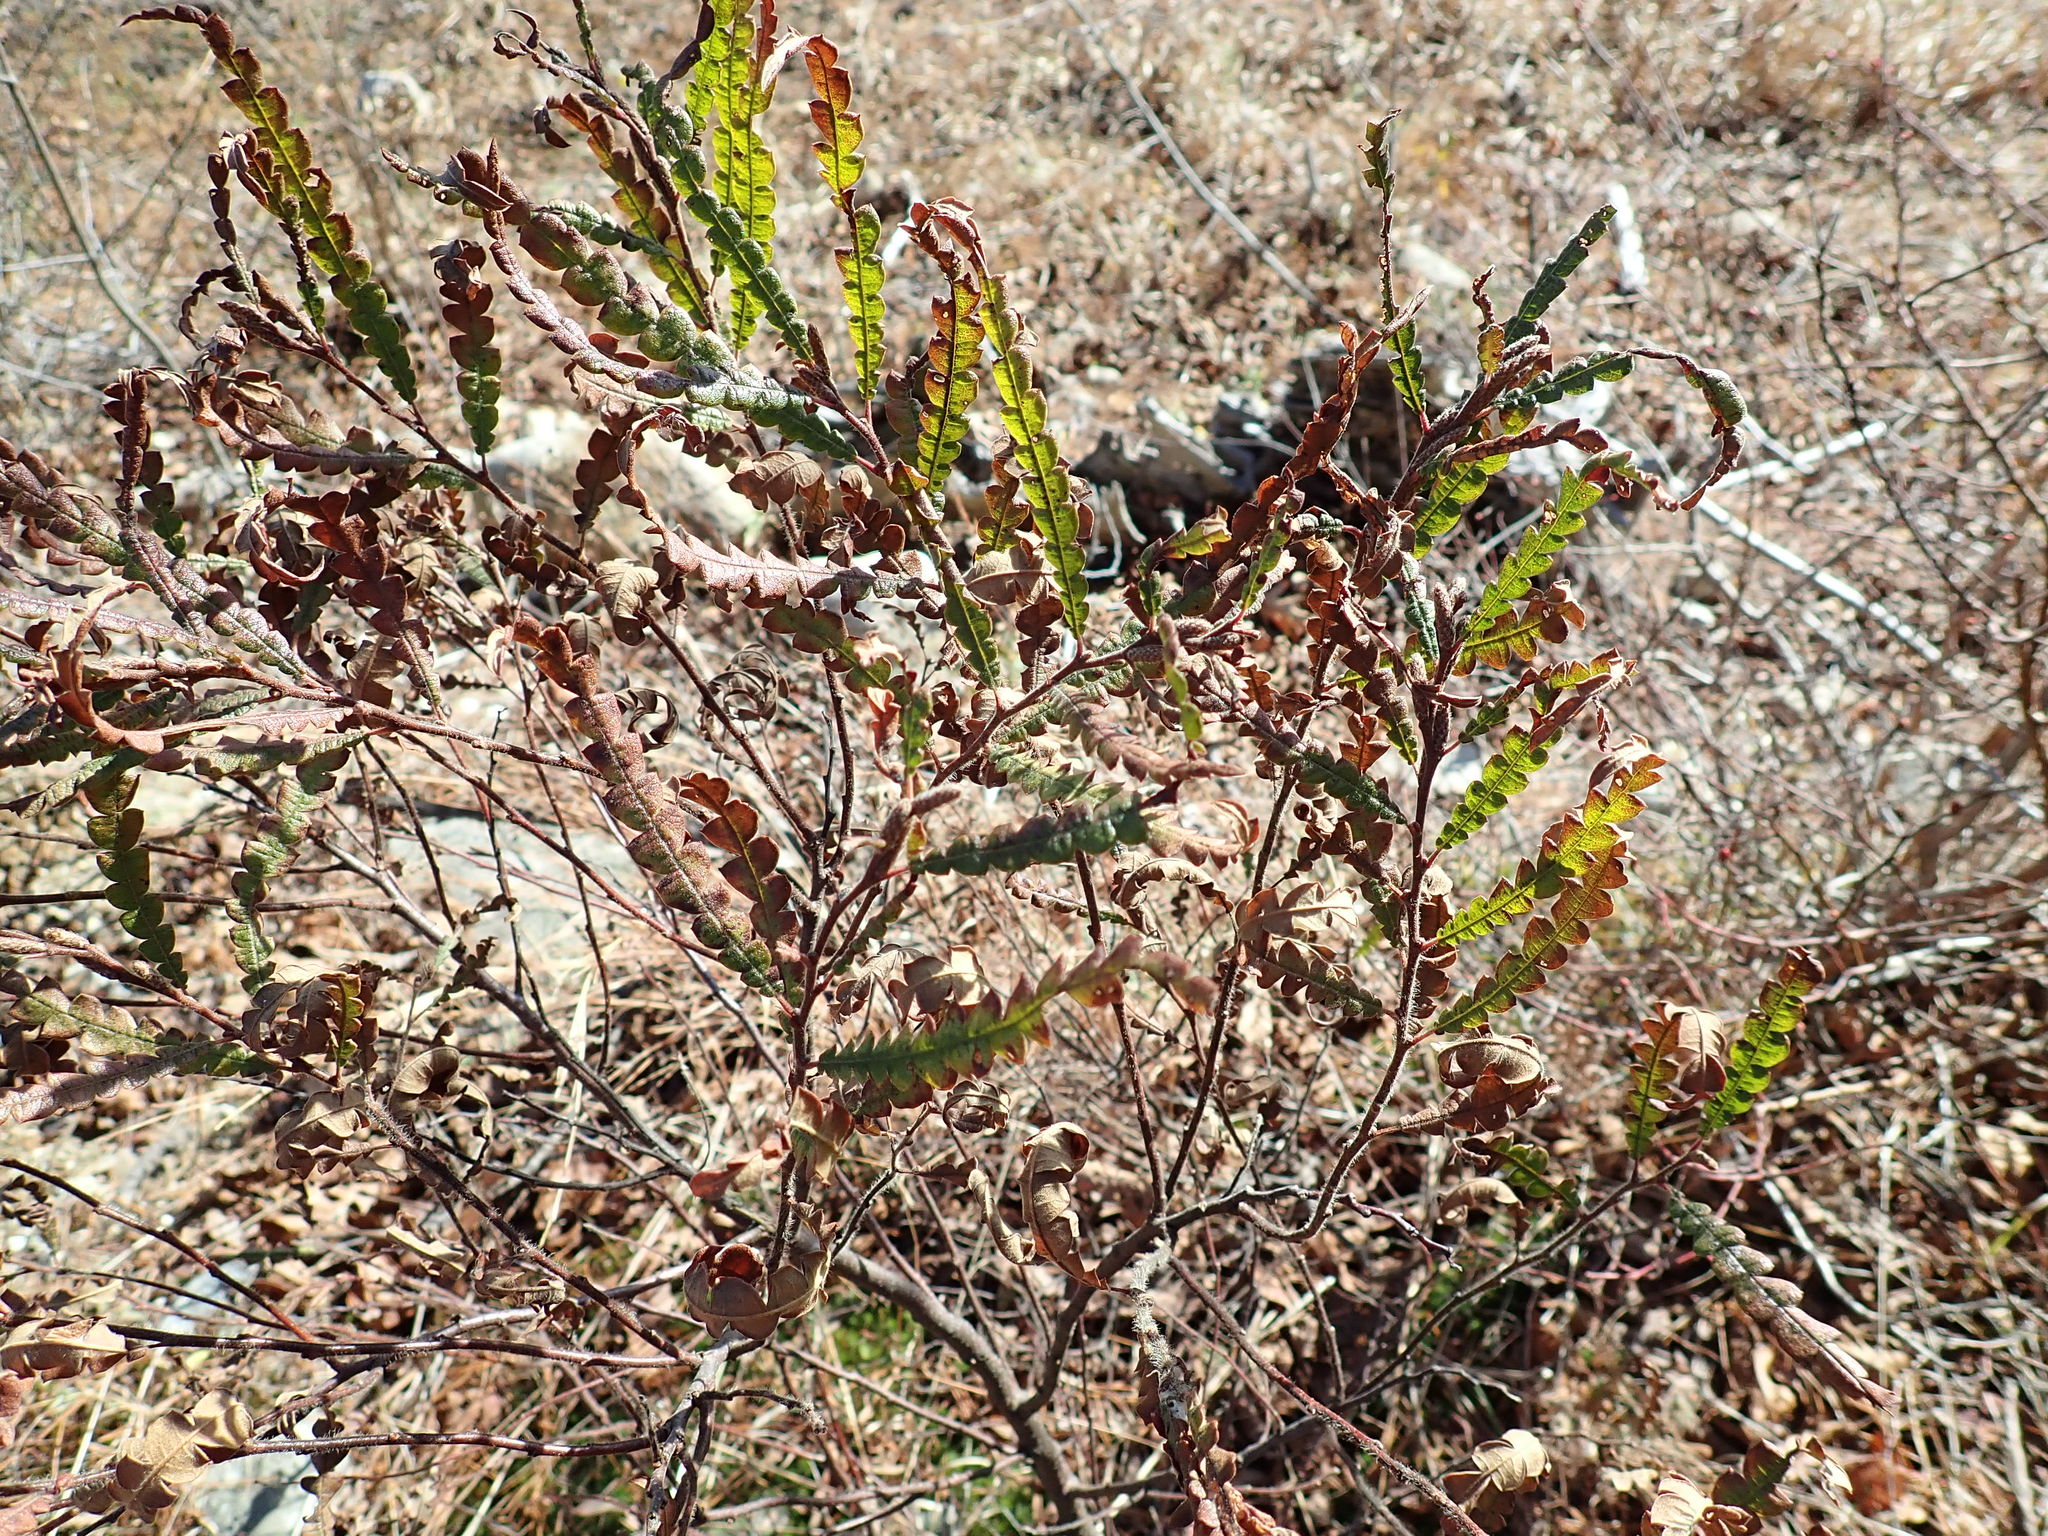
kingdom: Plantae
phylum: Tracheophyta
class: Magnoliopsida
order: Fagales
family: Myricaceae
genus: Comptonia
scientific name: Comptonia peregrina
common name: Sweet-fern
